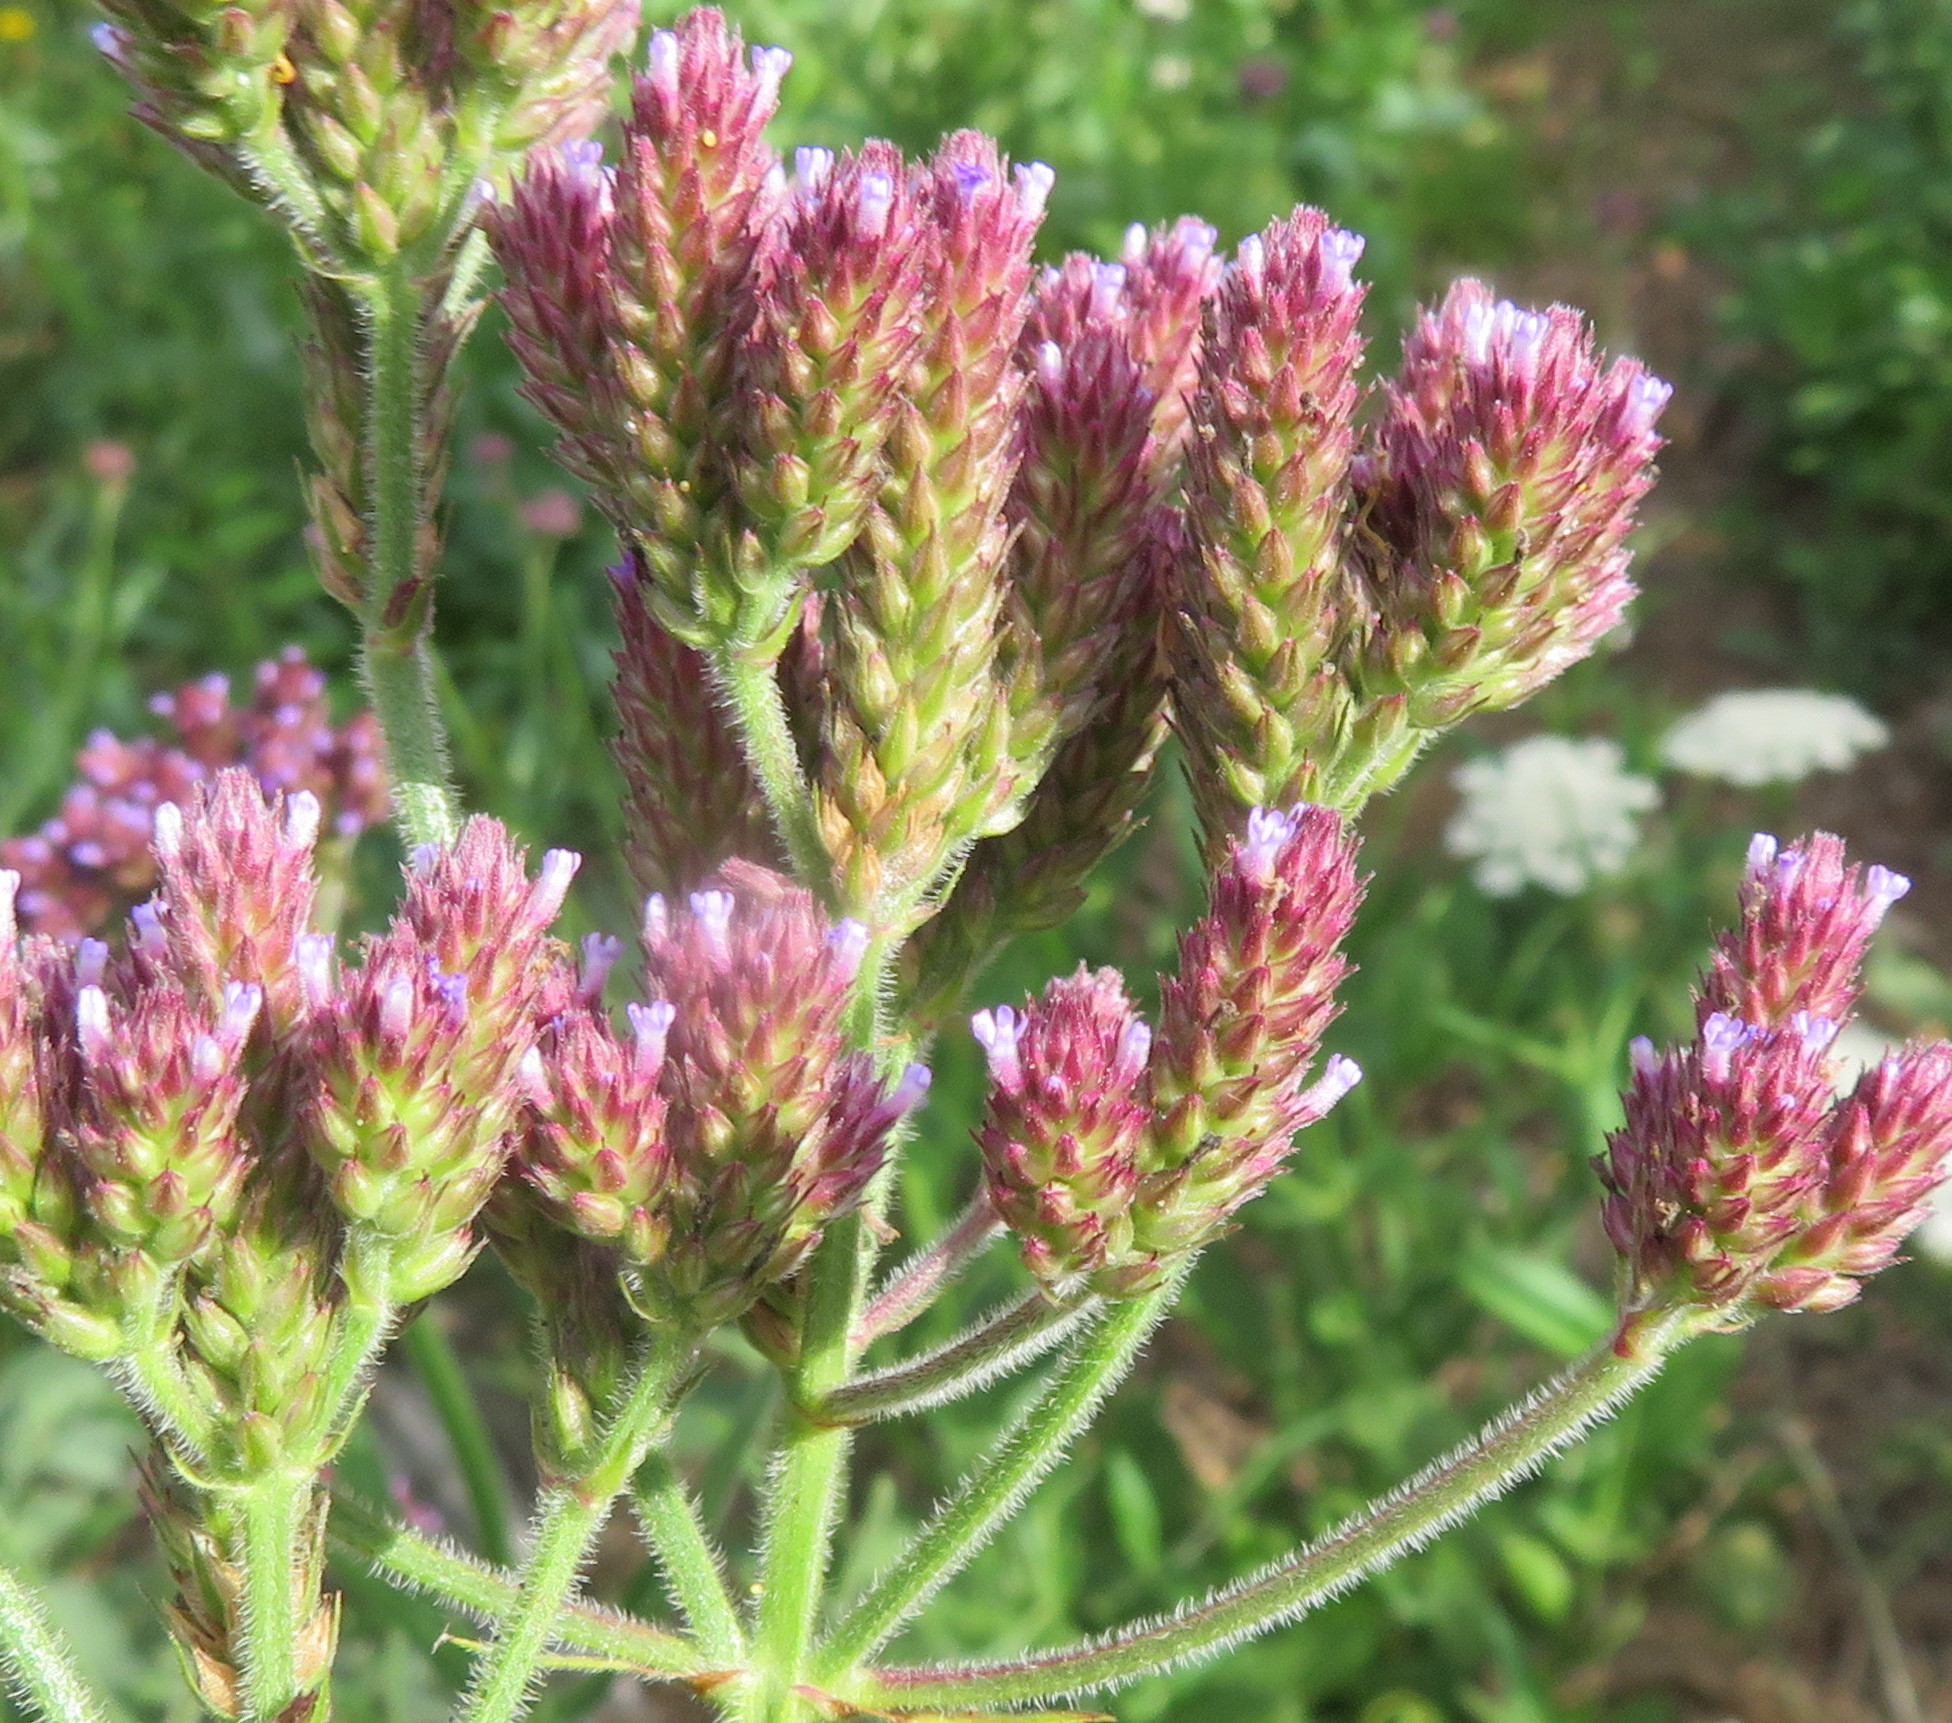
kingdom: Plantae
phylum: Tracheophyta
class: Magnoliopsida
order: Lamiales
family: Verbenaceae
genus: Verbena
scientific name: Verbena incompta
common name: Purpletop vervain
